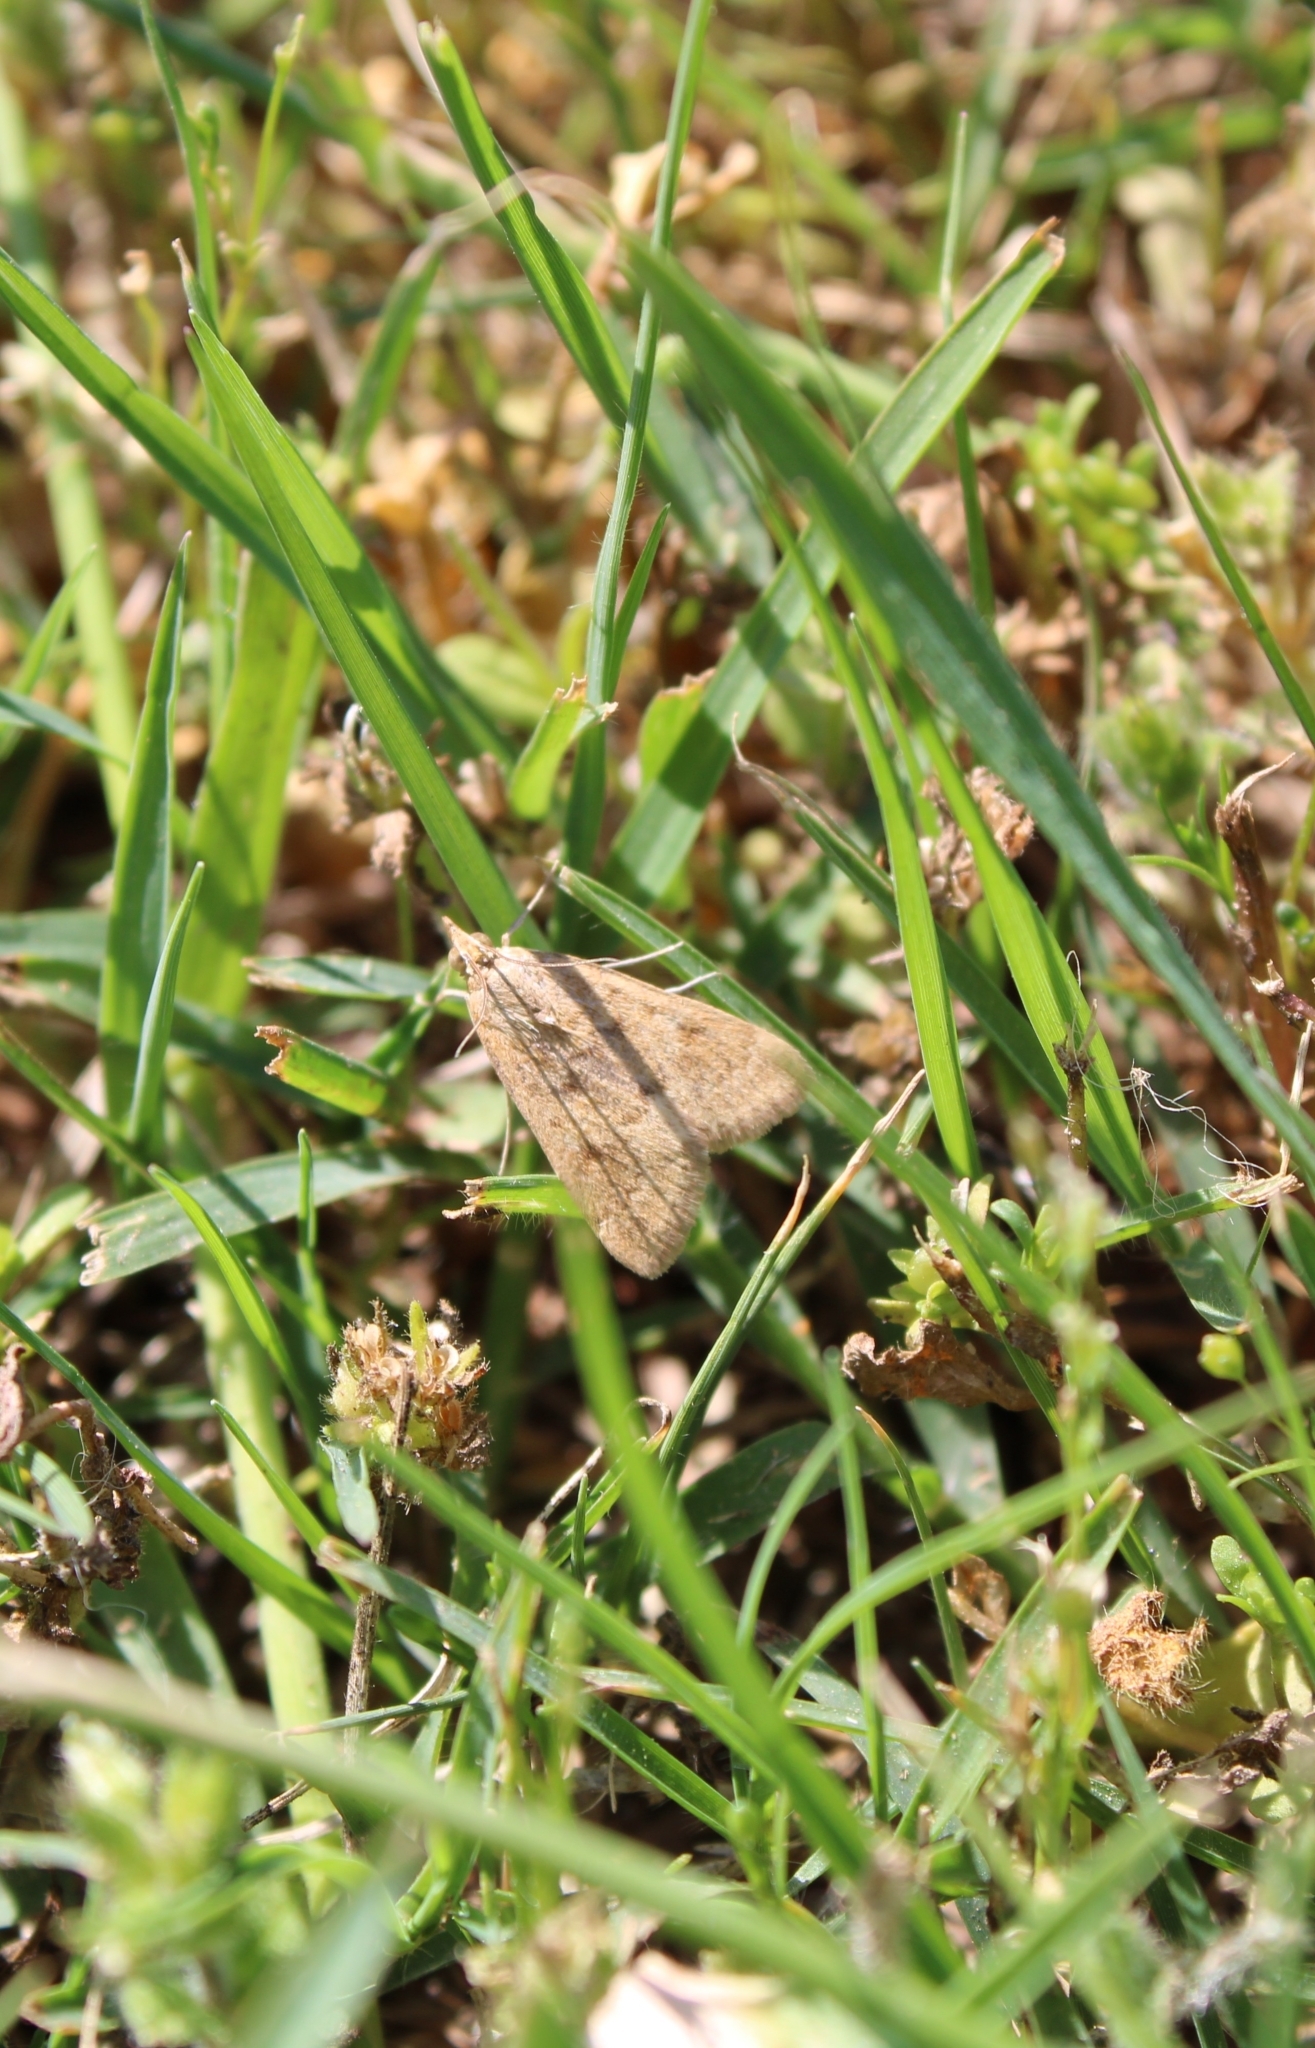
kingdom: Animalia
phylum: Arthropoda
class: Insecta
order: Lepidoptera
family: Crambidae
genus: Achyra
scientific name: Achyra rantalis
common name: Garden webworm
